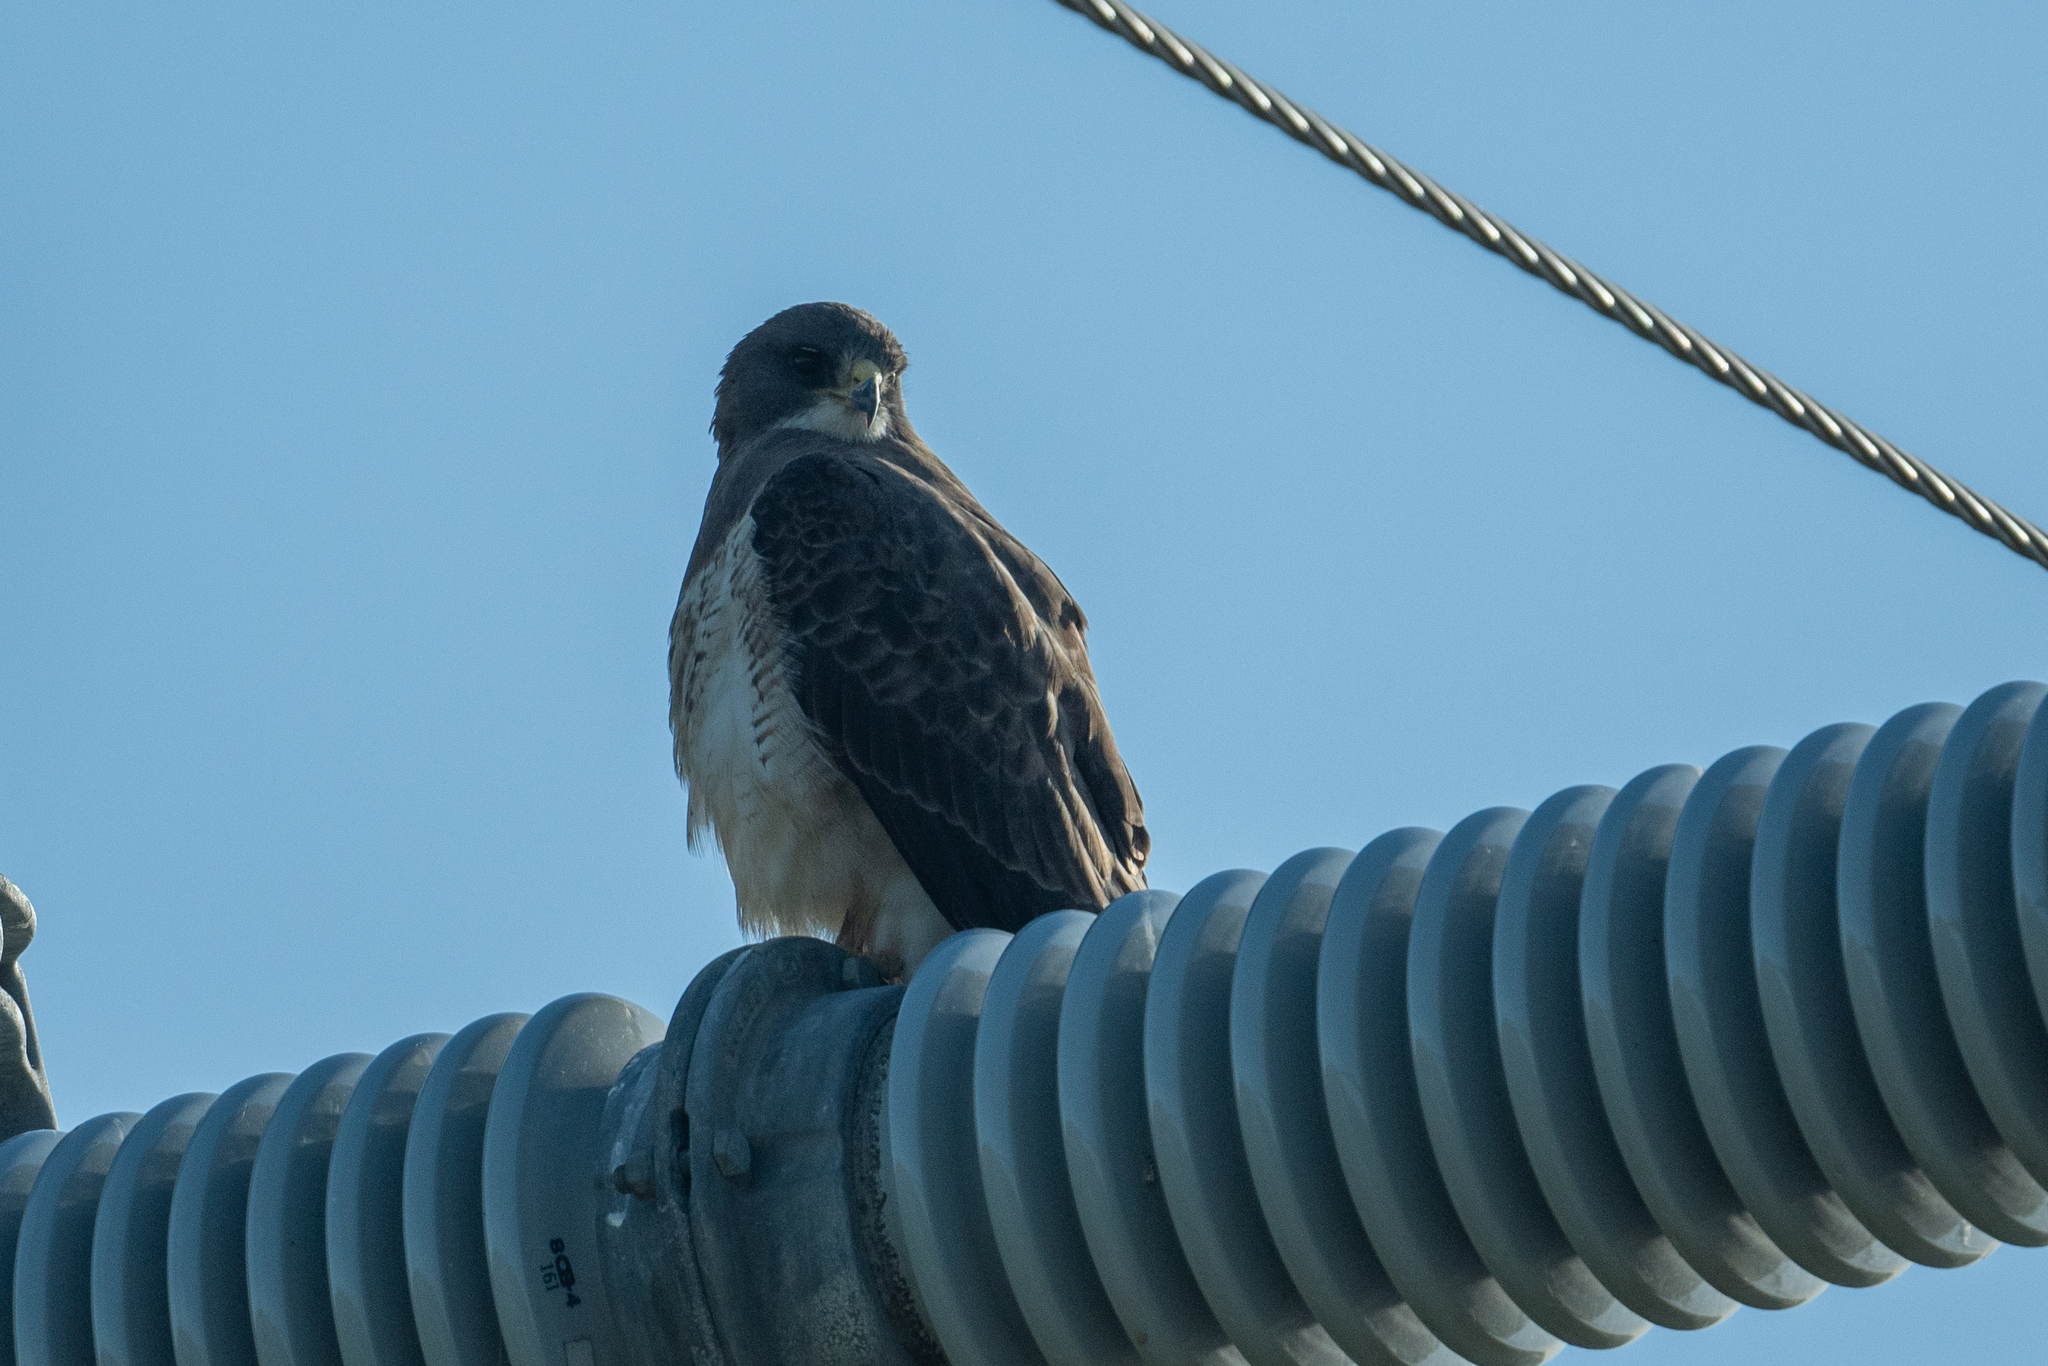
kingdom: Animalia
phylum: Chordata
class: Aves
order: Accipitriformes
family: Accipitridae
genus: Buteo
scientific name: Buteo swainsoni
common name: Swainson's hawk
